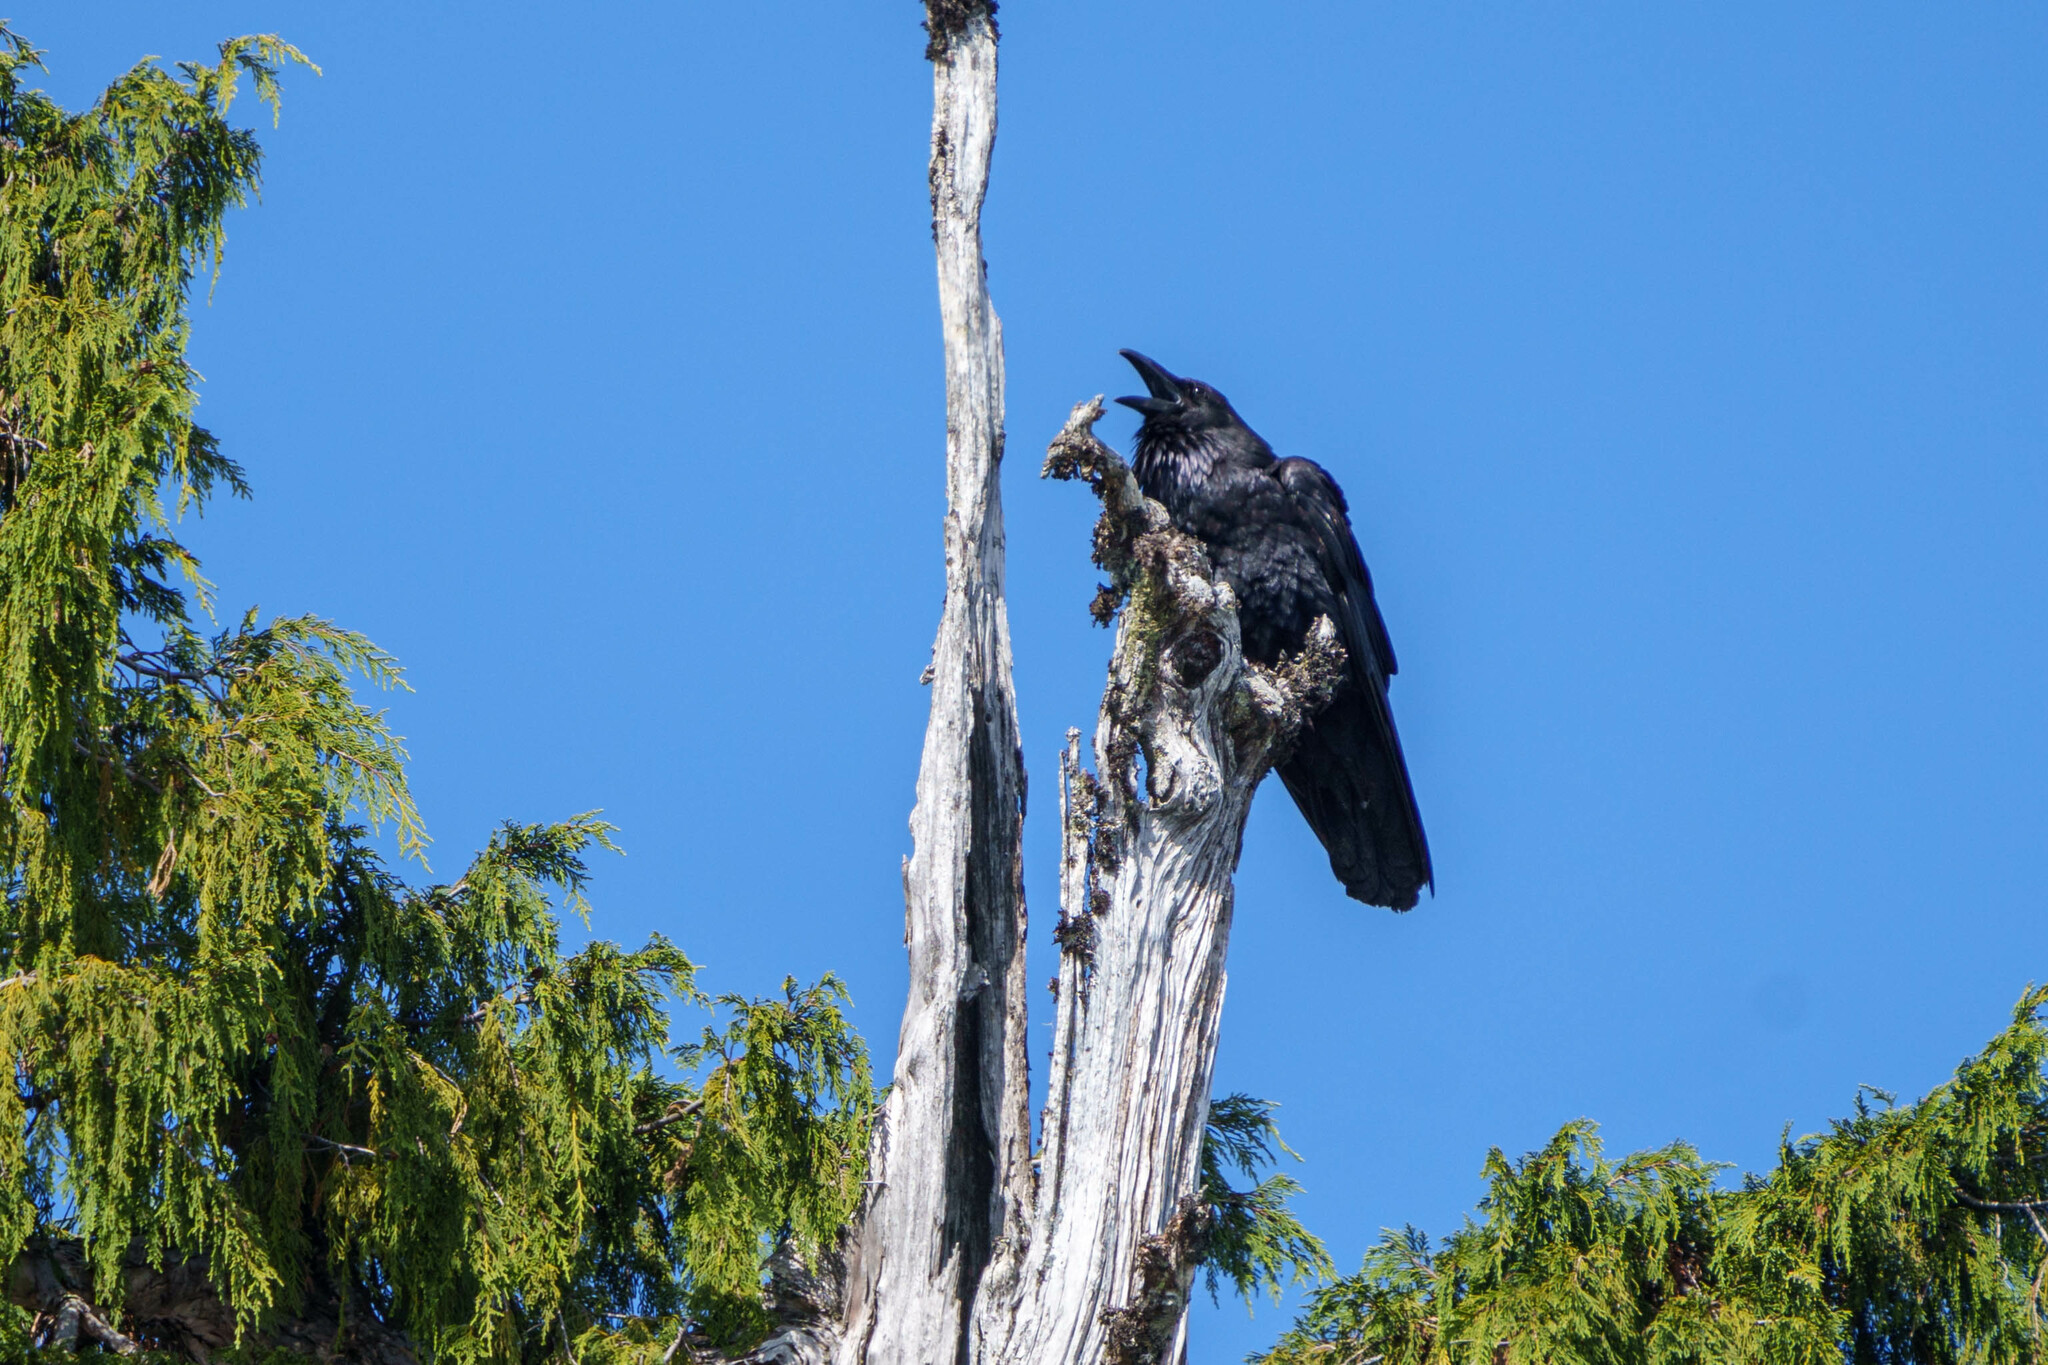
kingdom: Animalia
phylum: Chordata
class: Aves
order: Passeriformes
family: Corvidae
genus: Corvus
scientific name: Corvus corax
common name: Common raven
